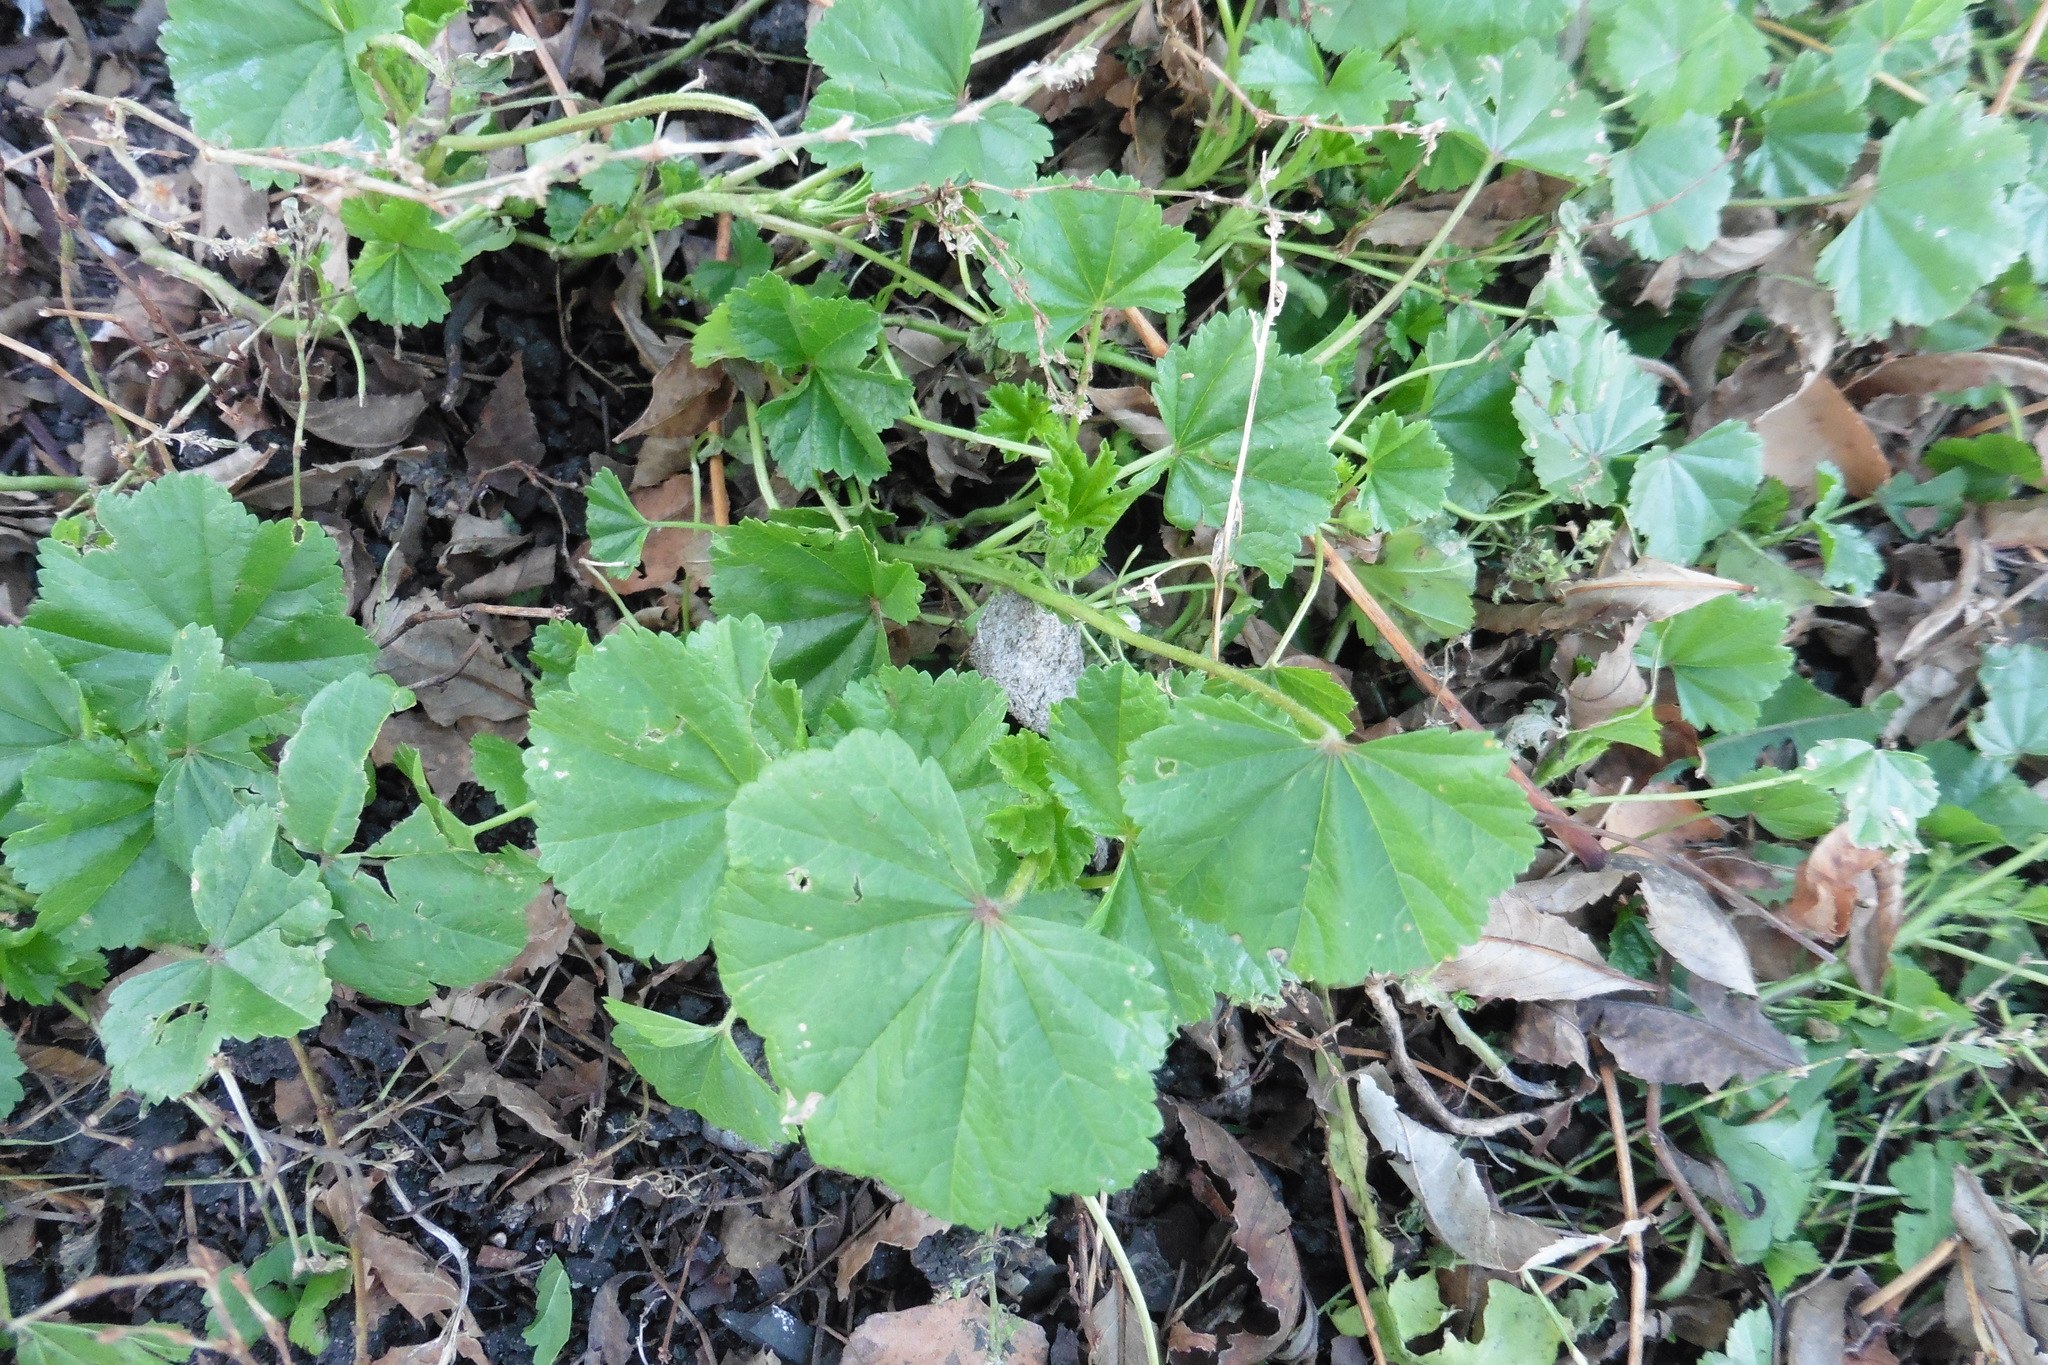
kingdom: Plantae
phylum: Tracheophyta
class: Magnoliopsida
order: Malvales
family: Malvaceae
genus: Malva
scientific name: Malva pusilla
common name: Small mallow
